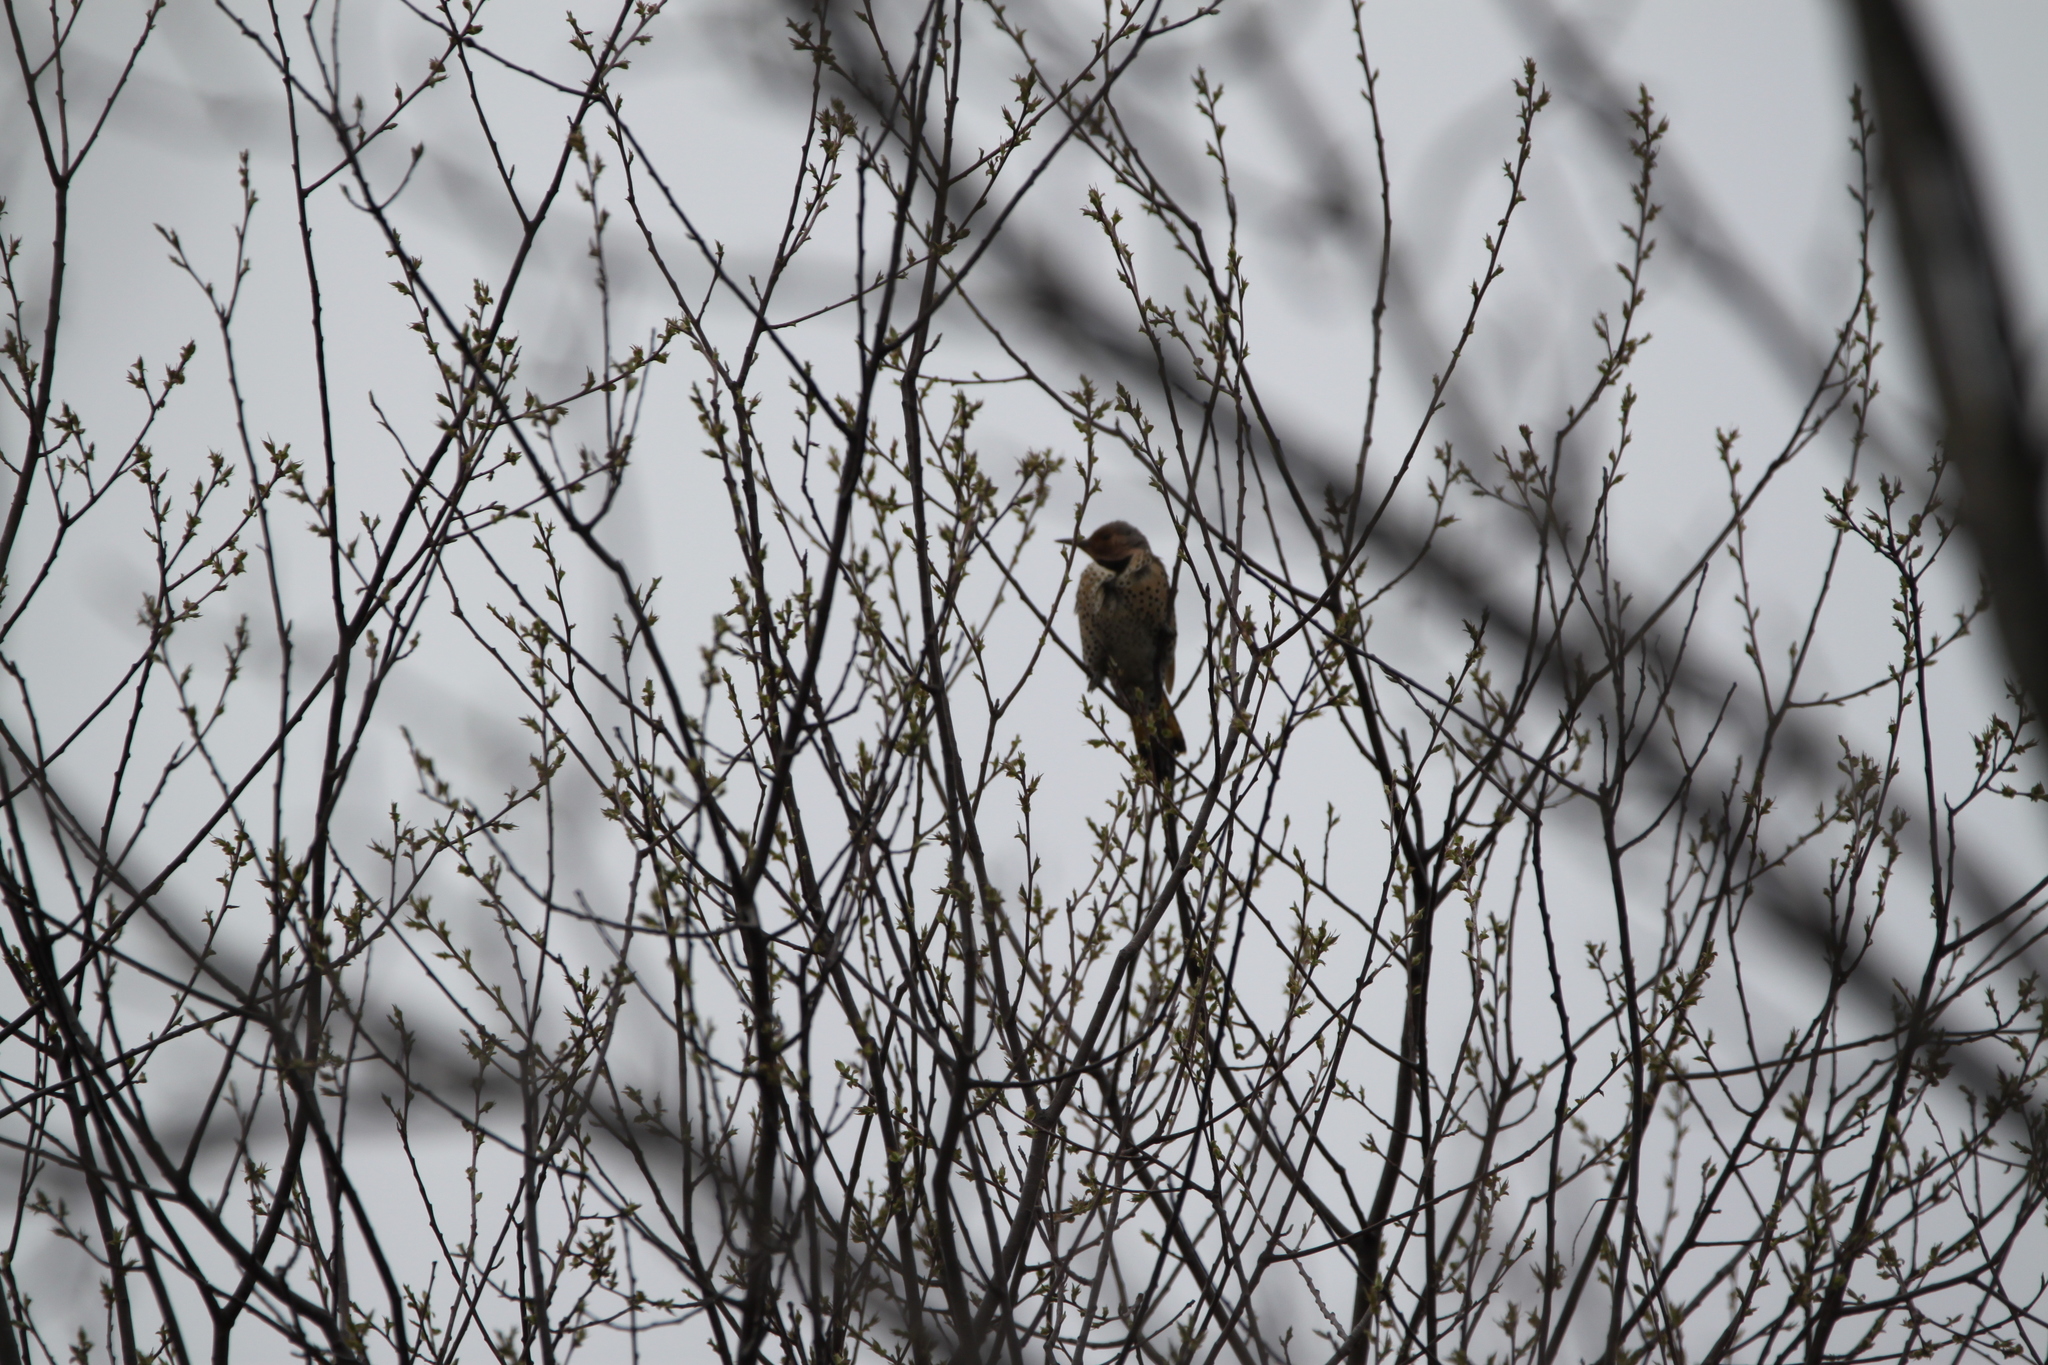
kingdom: Animalia
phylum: Chordata
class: Aves
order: Piciformes
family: Picidae
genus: Colaptes
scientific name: Colaptes auratus
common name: Northern flicker
